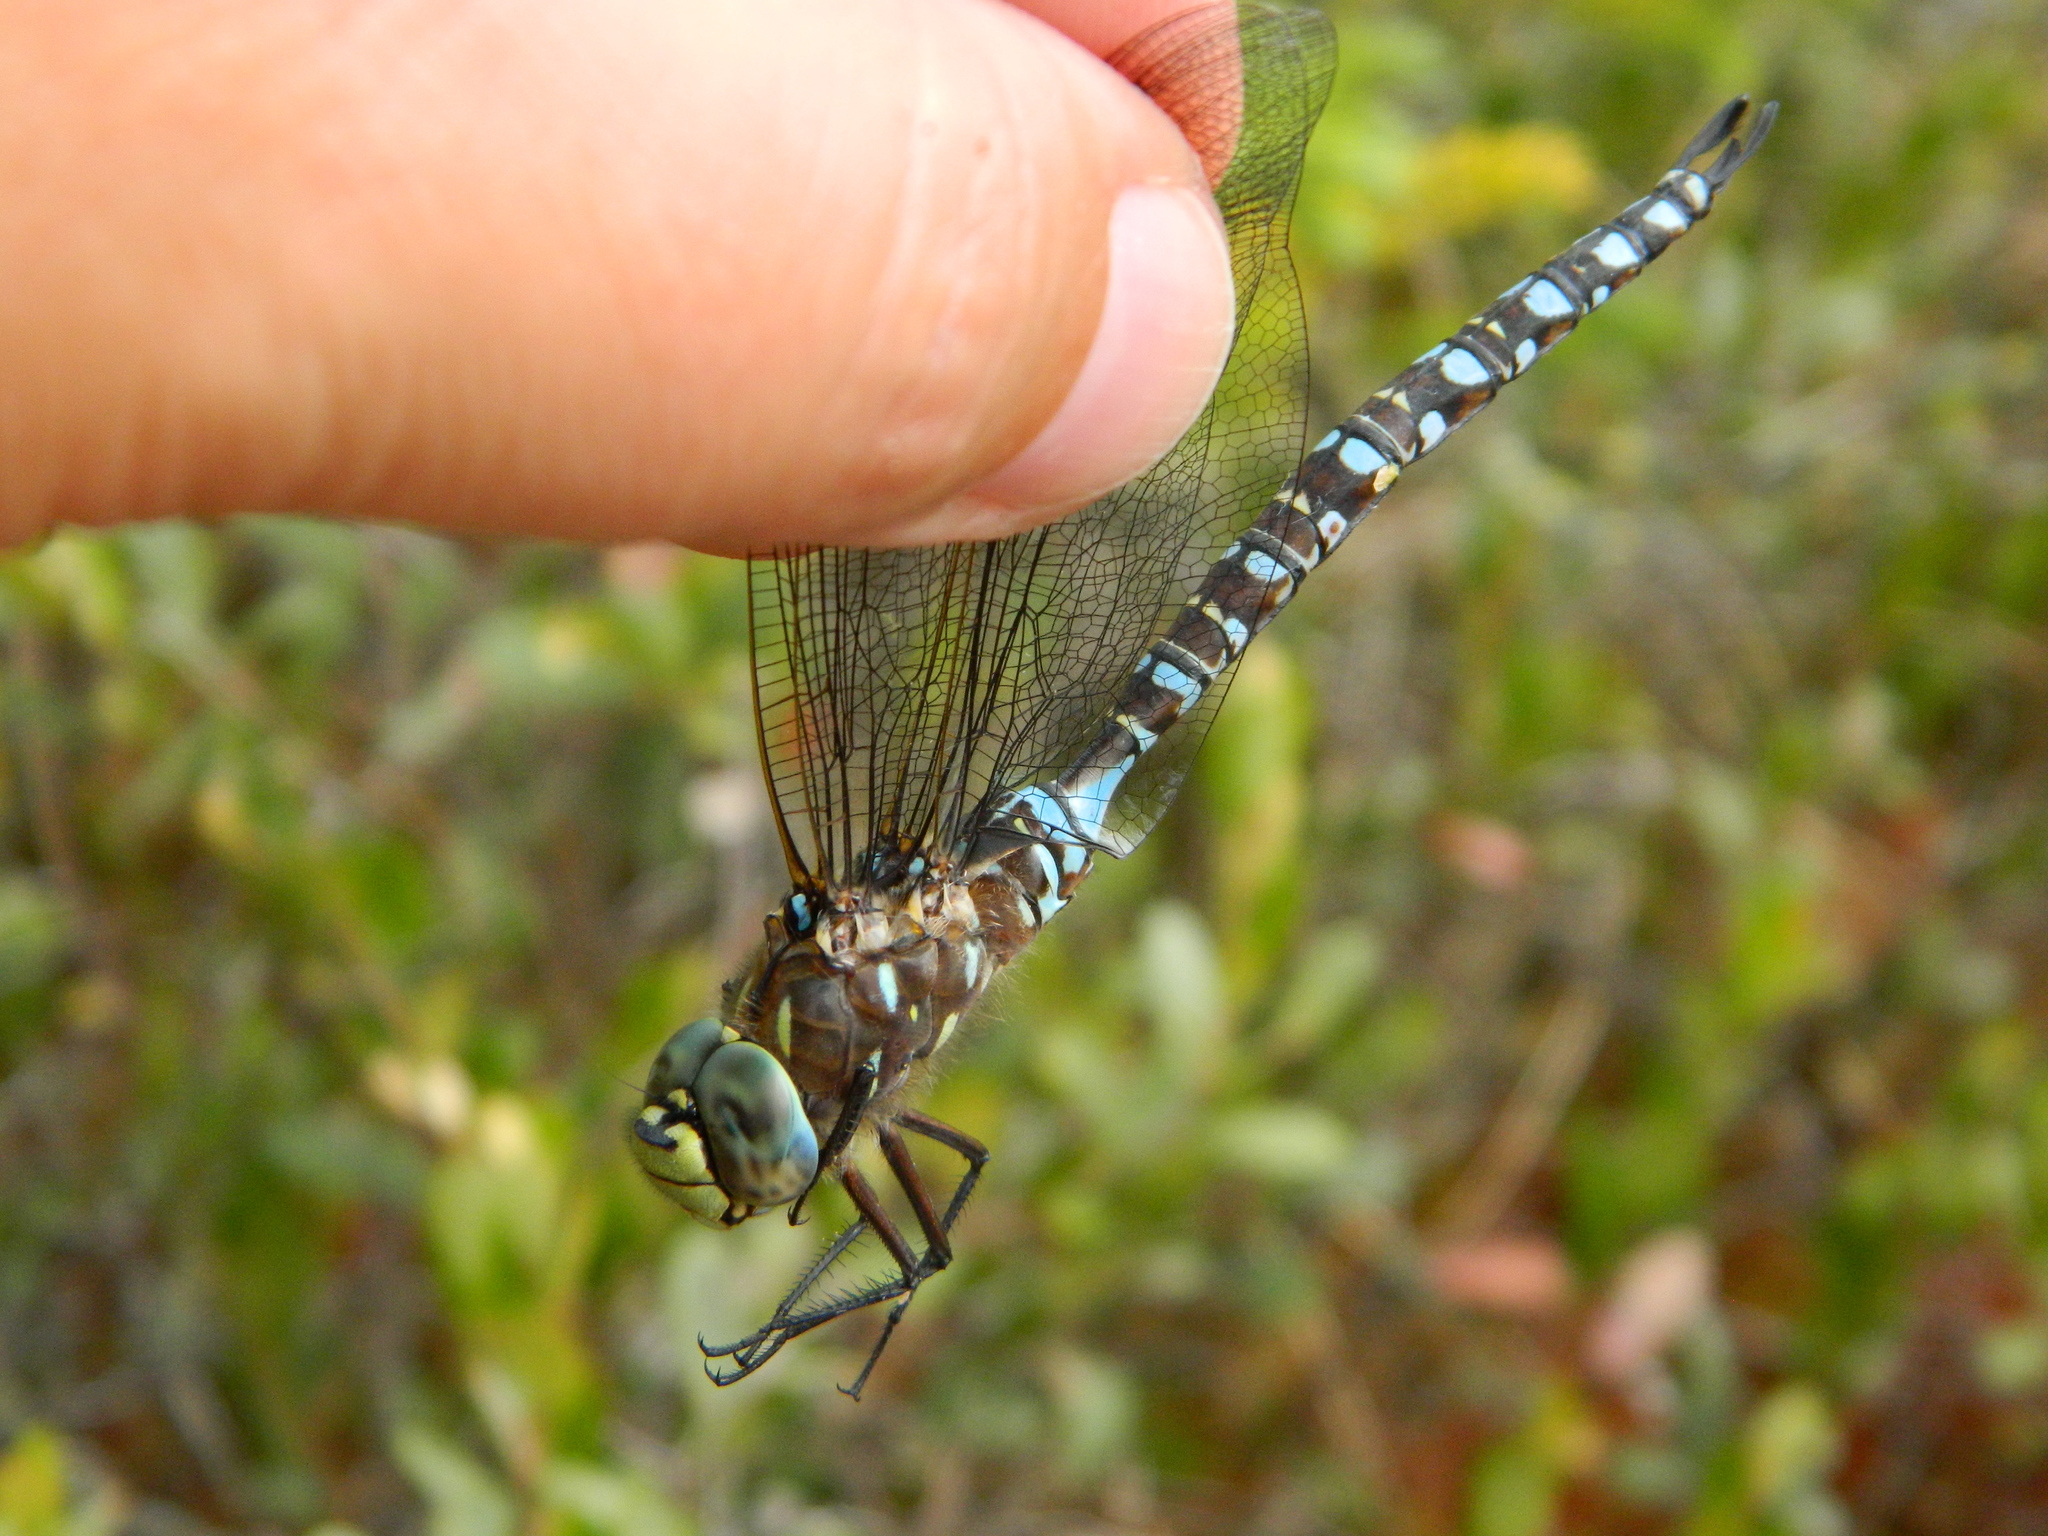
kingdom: Animalia
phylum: Arthropoda
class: Insecta
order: Odonata
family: Aeshnidae
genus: Aeshna
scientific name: Aeshna interrupta
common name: Variable darner
